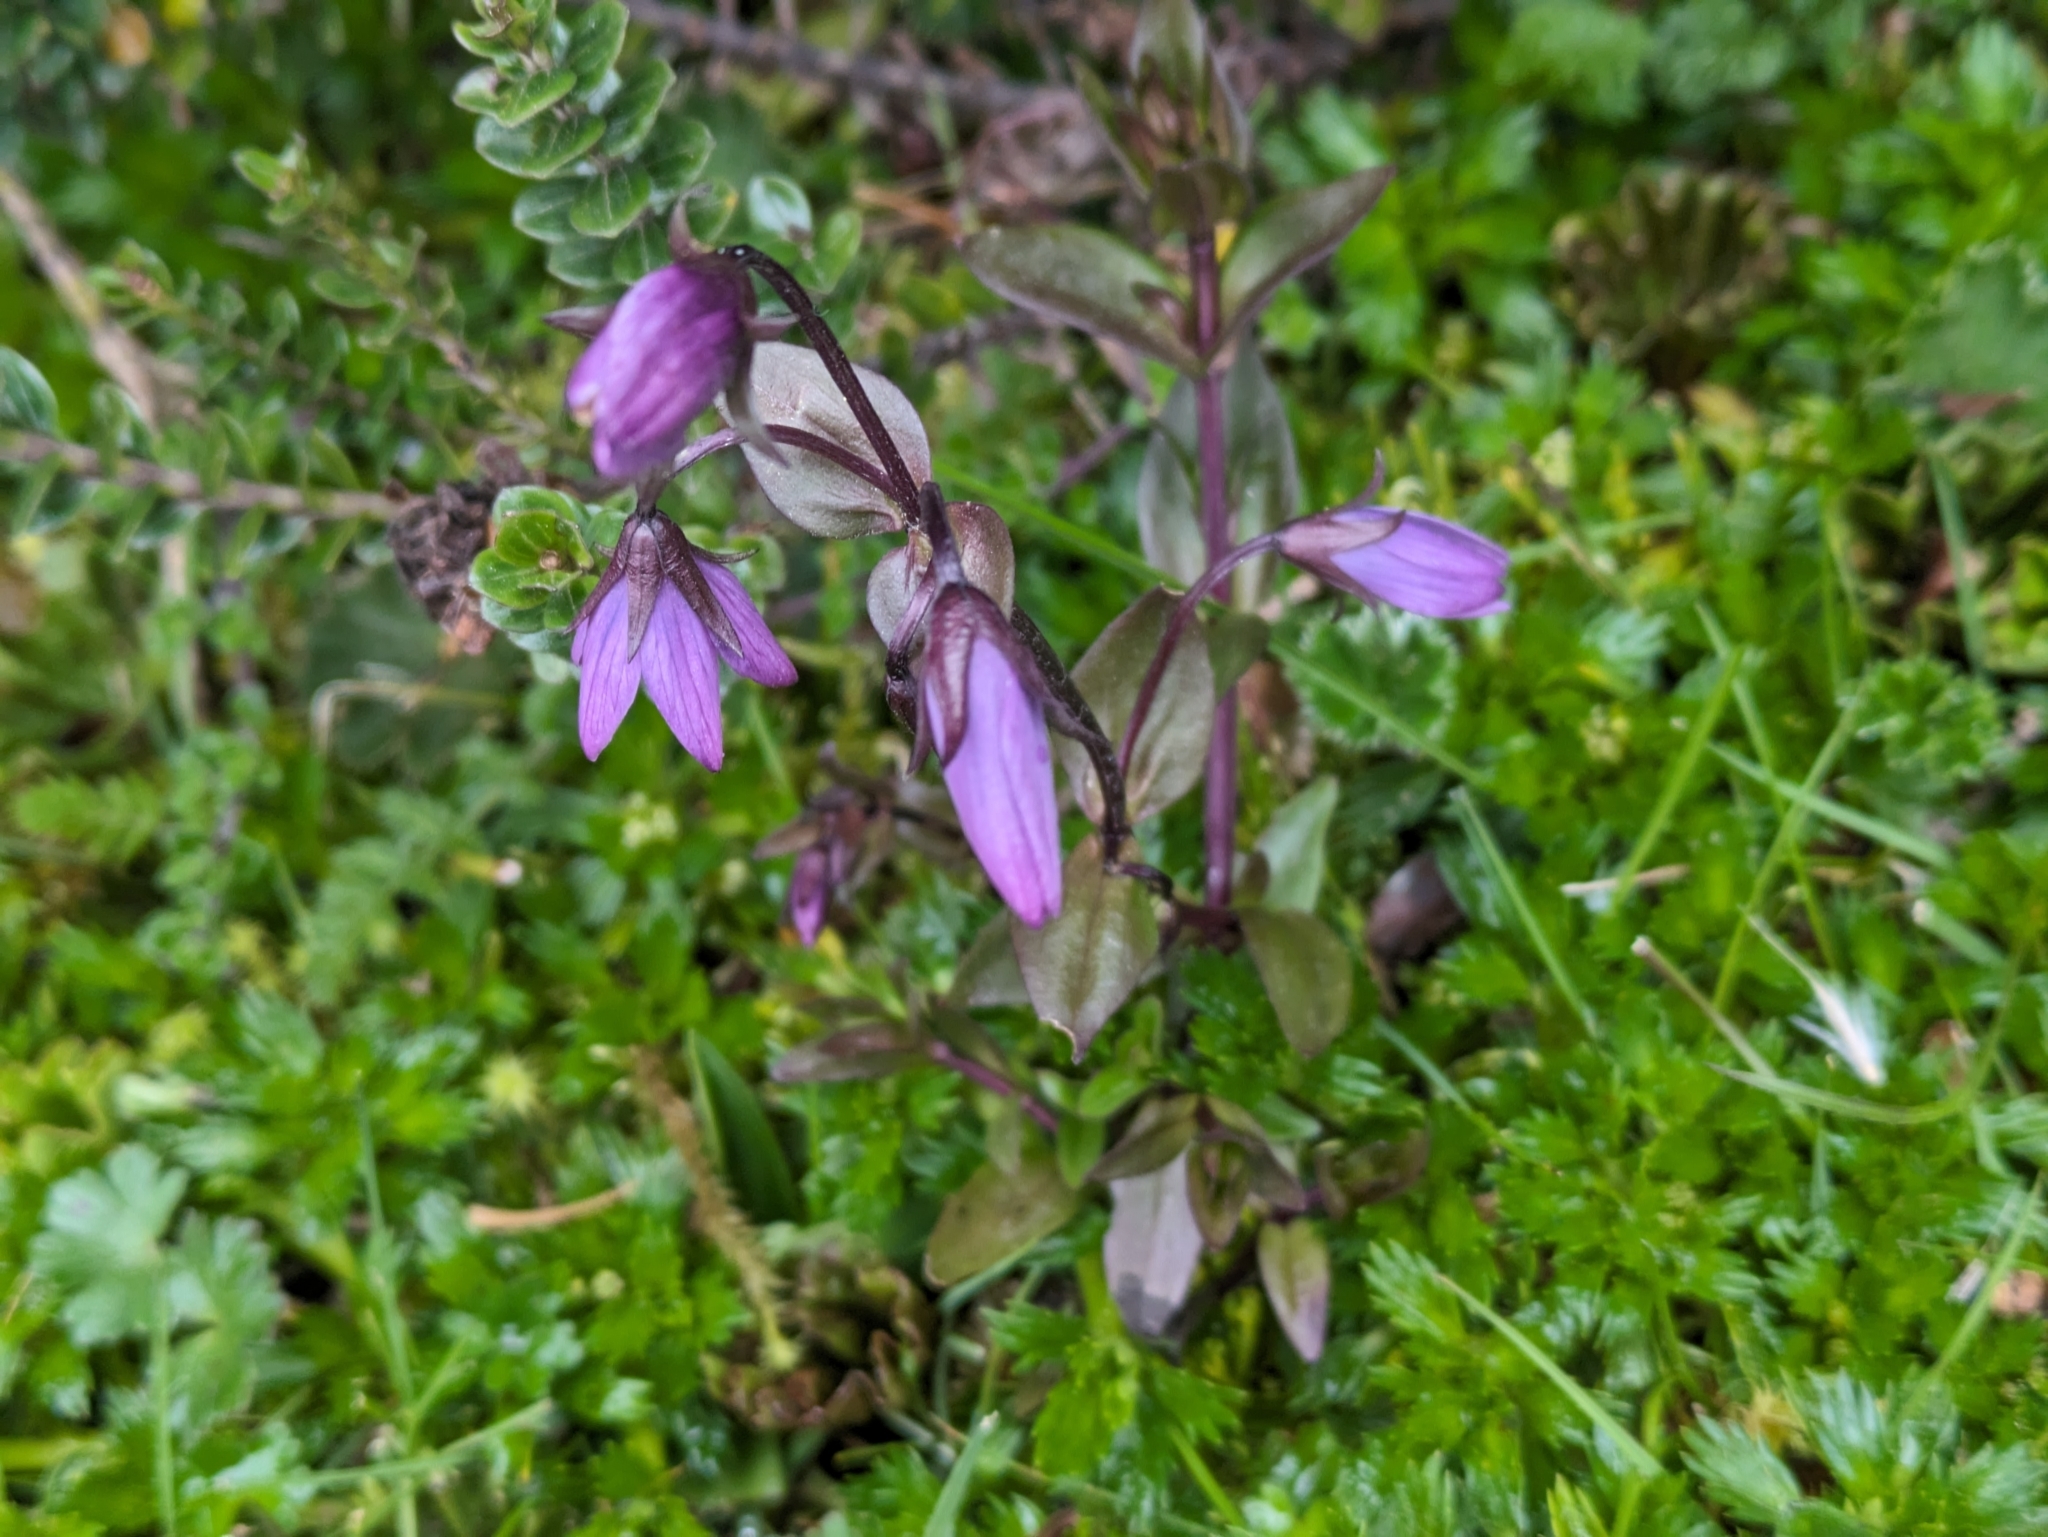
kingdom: Plantae
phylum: Tracheophyta
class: Magnoliopsida
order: Gentianales
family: Gentianaceae
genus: Gentianella
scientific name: Gentianella rapunculoides
